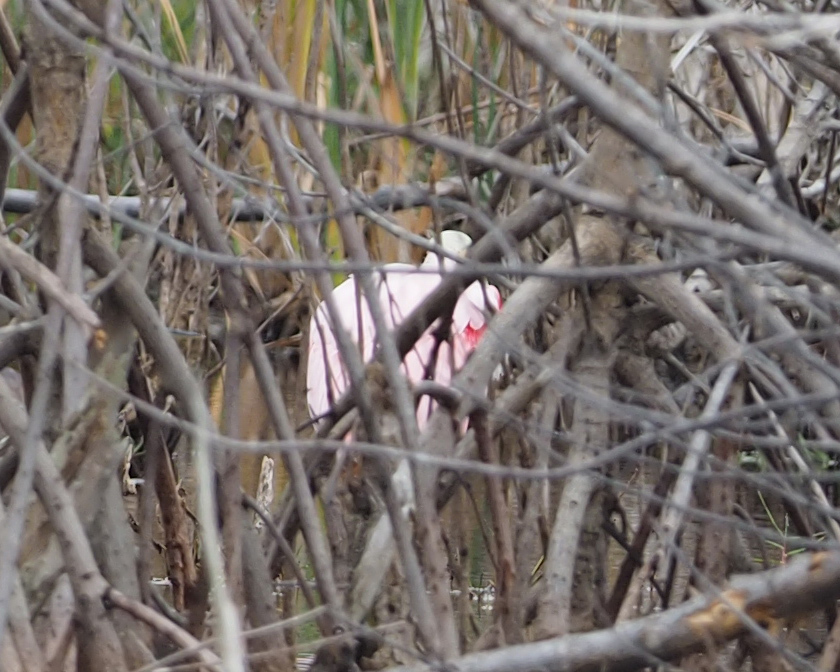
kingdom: Animalia
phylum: Chordata
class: Aves
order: Pelecaniformes
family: Threskiornithidae
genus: Platalea
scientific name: Platalea ajaja
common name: Roseate spoonbill
